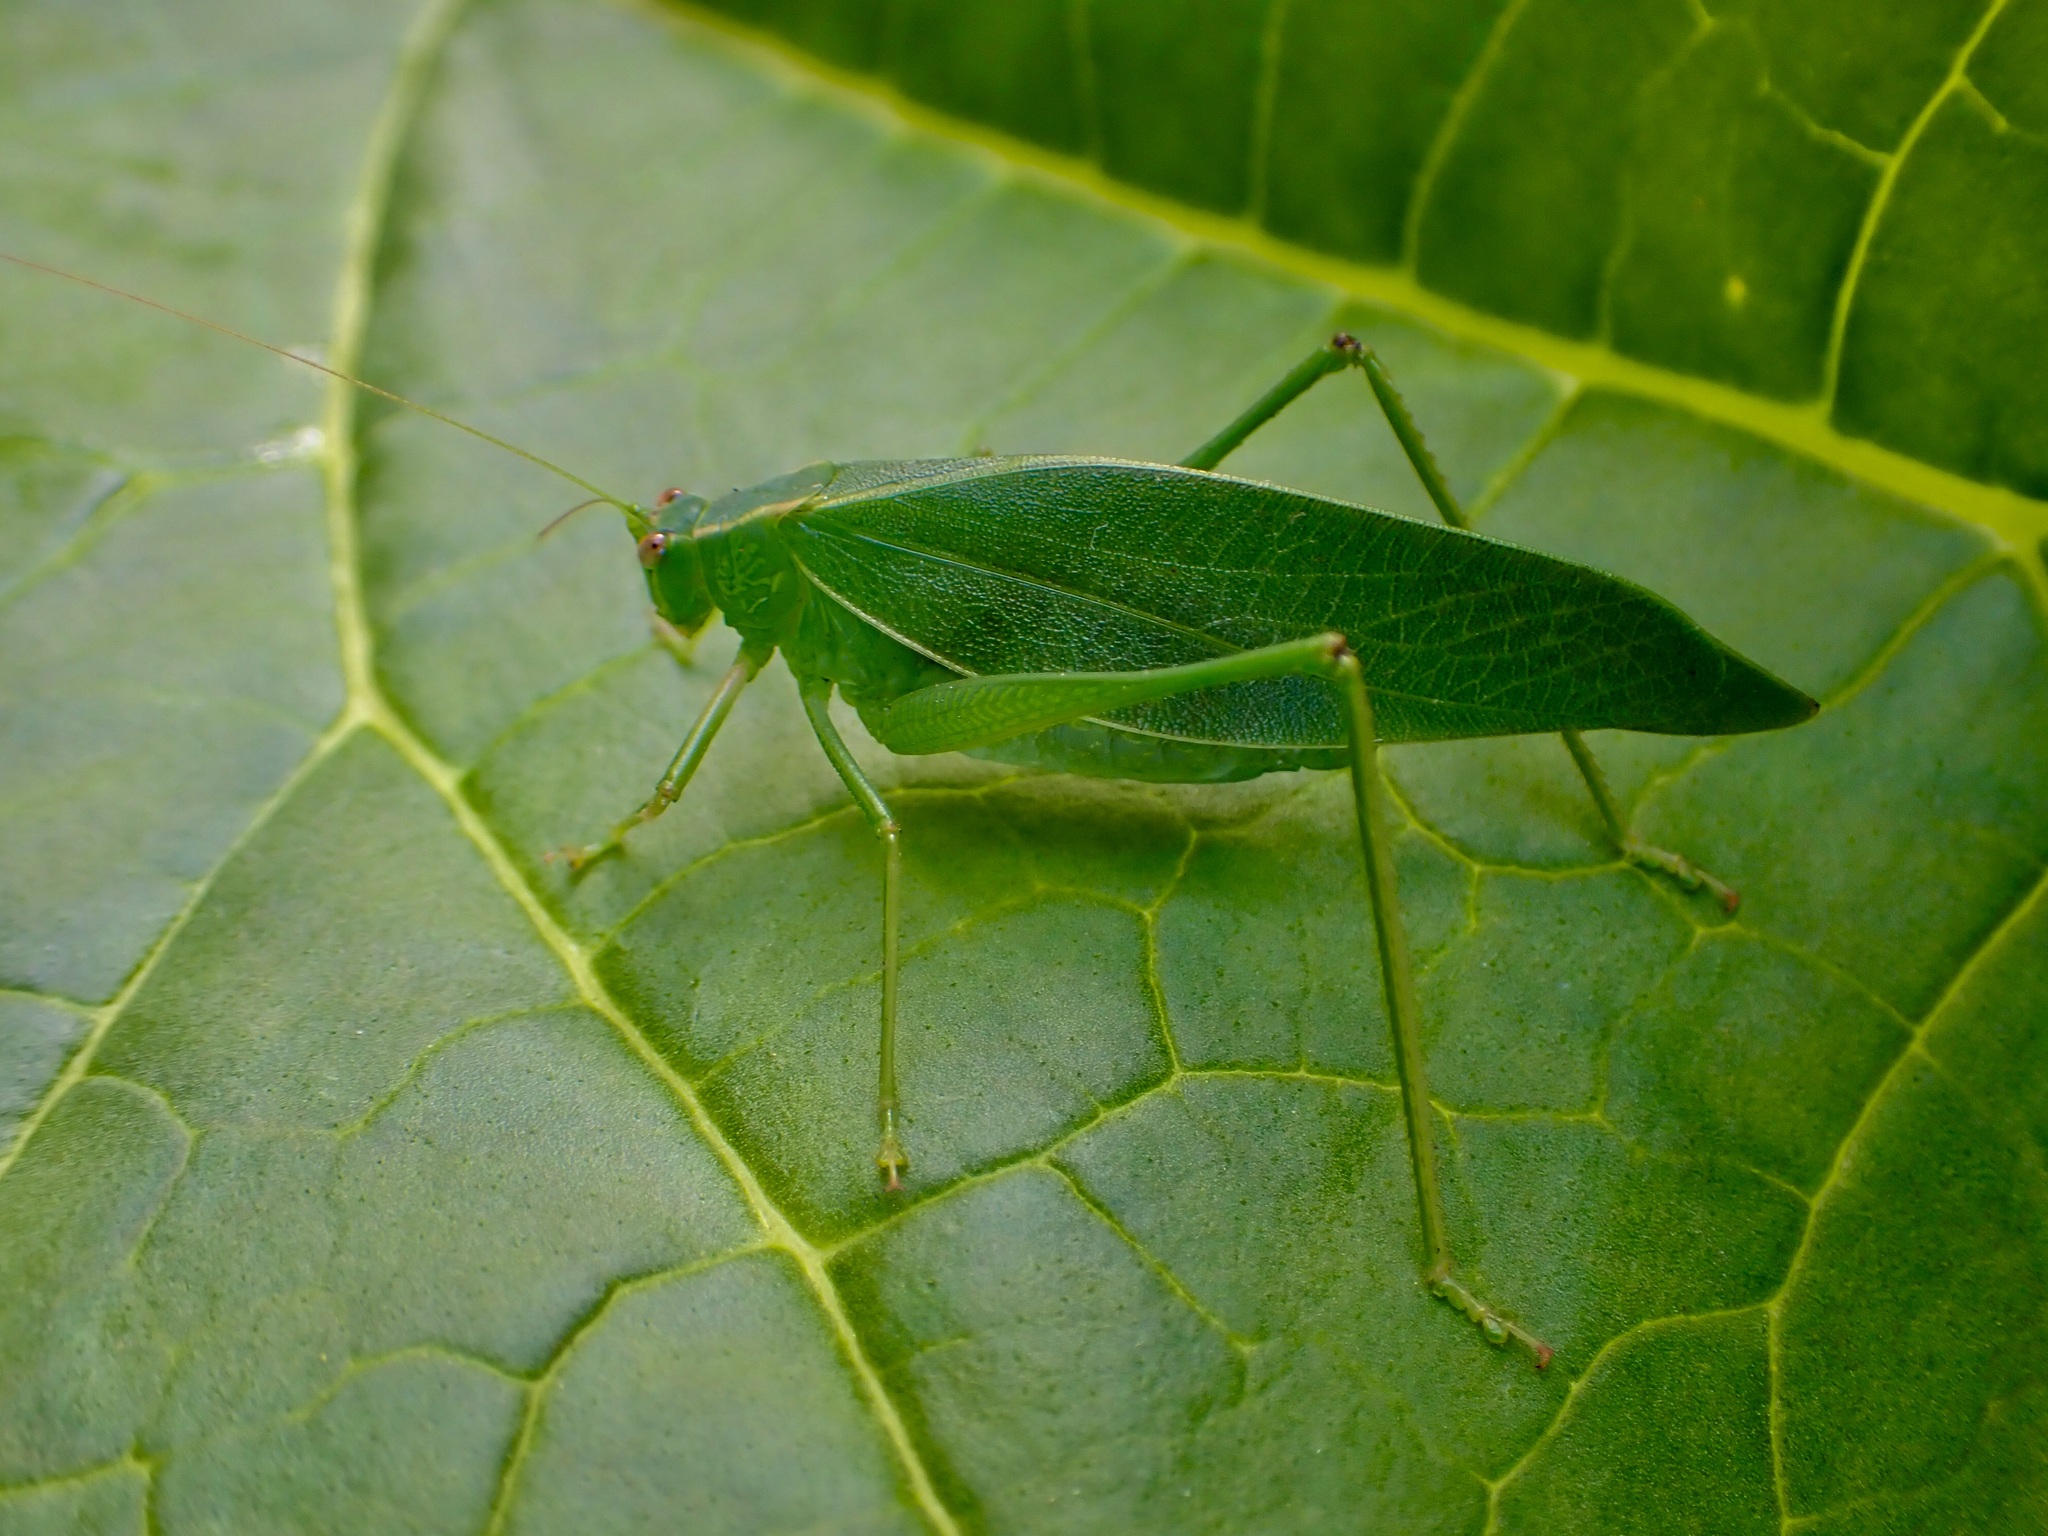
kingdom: Animalia
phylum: Arthropoda
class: Insecta
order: Orthoptera
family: Tettigoniidae
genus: Caedicia
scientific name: Caedicia simplex
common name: Common garden katydid
